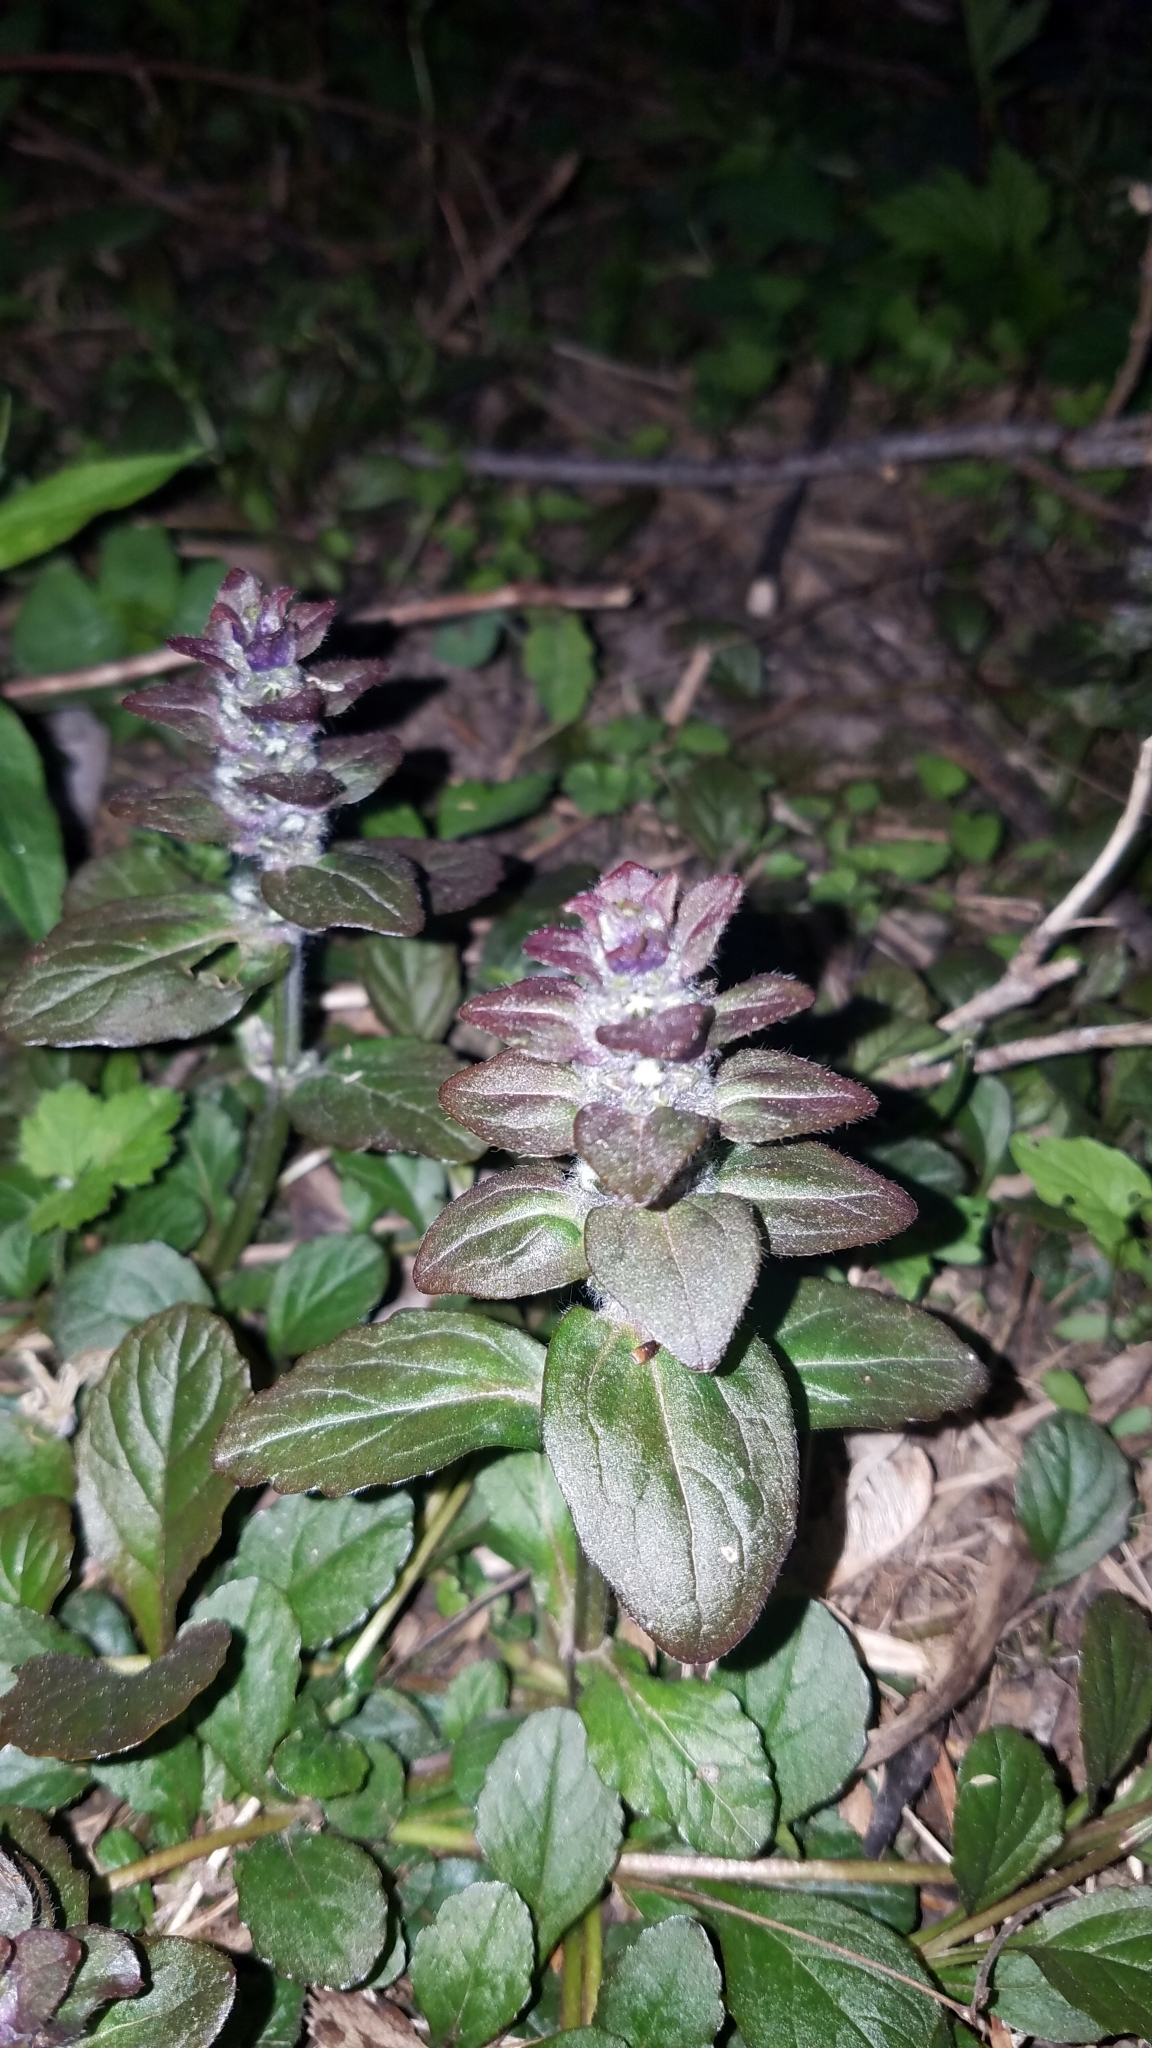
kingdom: Plantae
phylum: Tracheophyta
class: Magnoliopsida
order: Lamiales
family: Lamiaceae
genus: Ajuga
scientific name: Ajuga reptans
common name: Bugle
